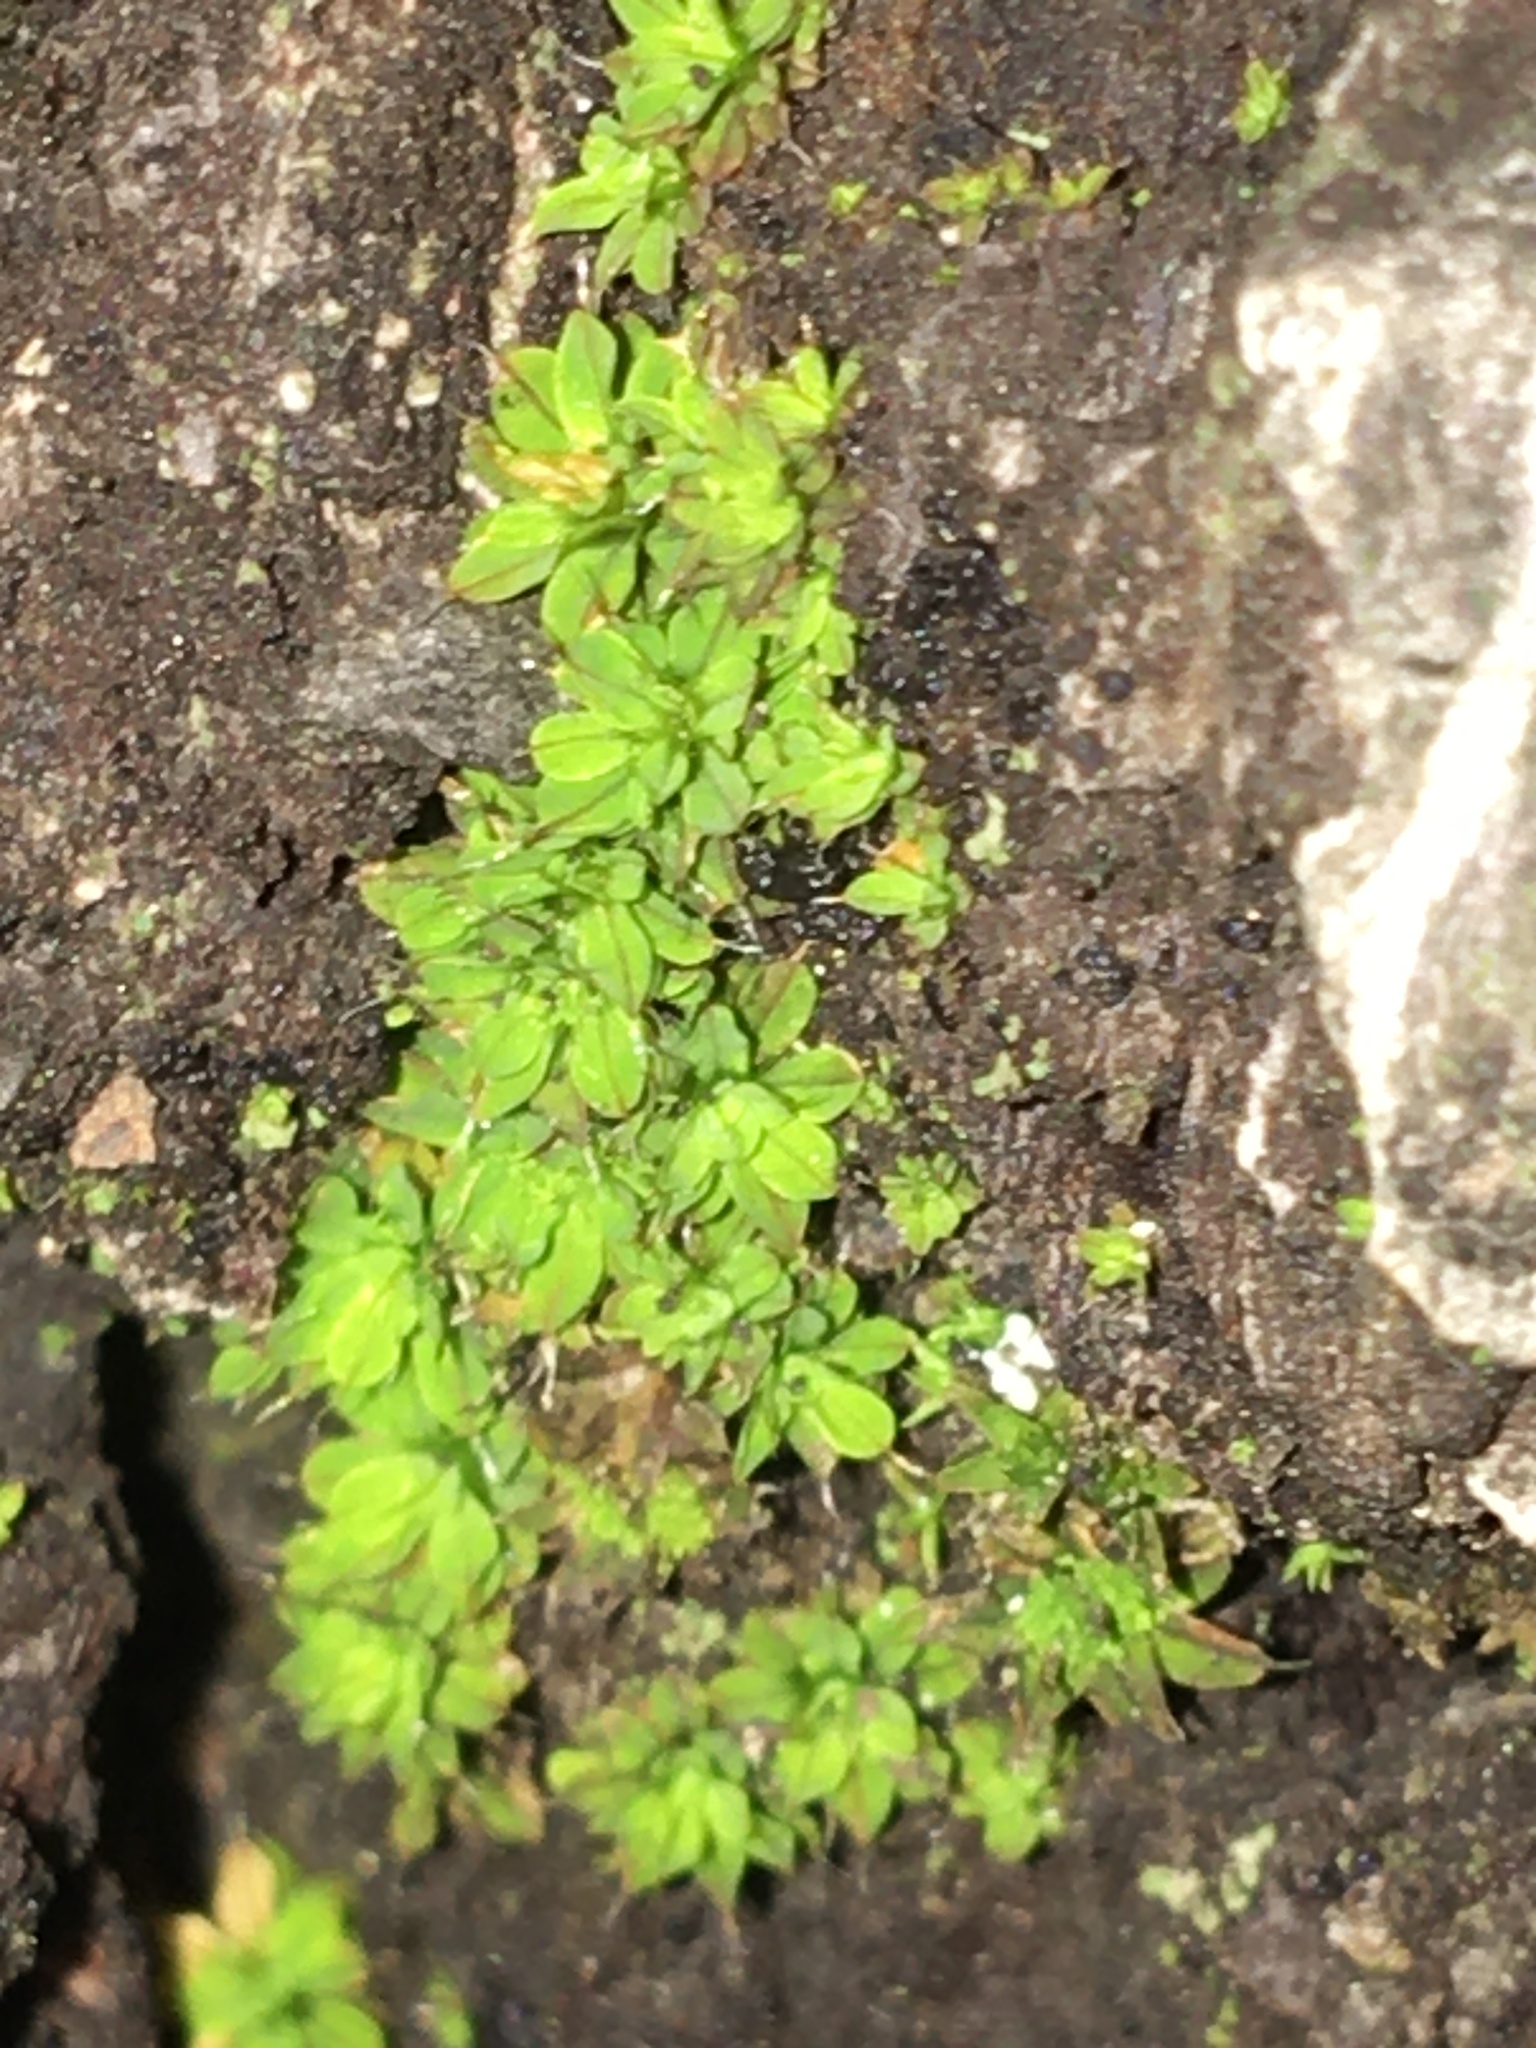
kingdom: Plantae
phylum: Bryophyta
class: Bryopsida
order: Pottiales
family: Pottiaceae
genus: Syntrichia
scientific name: Syntrichia pagorum
